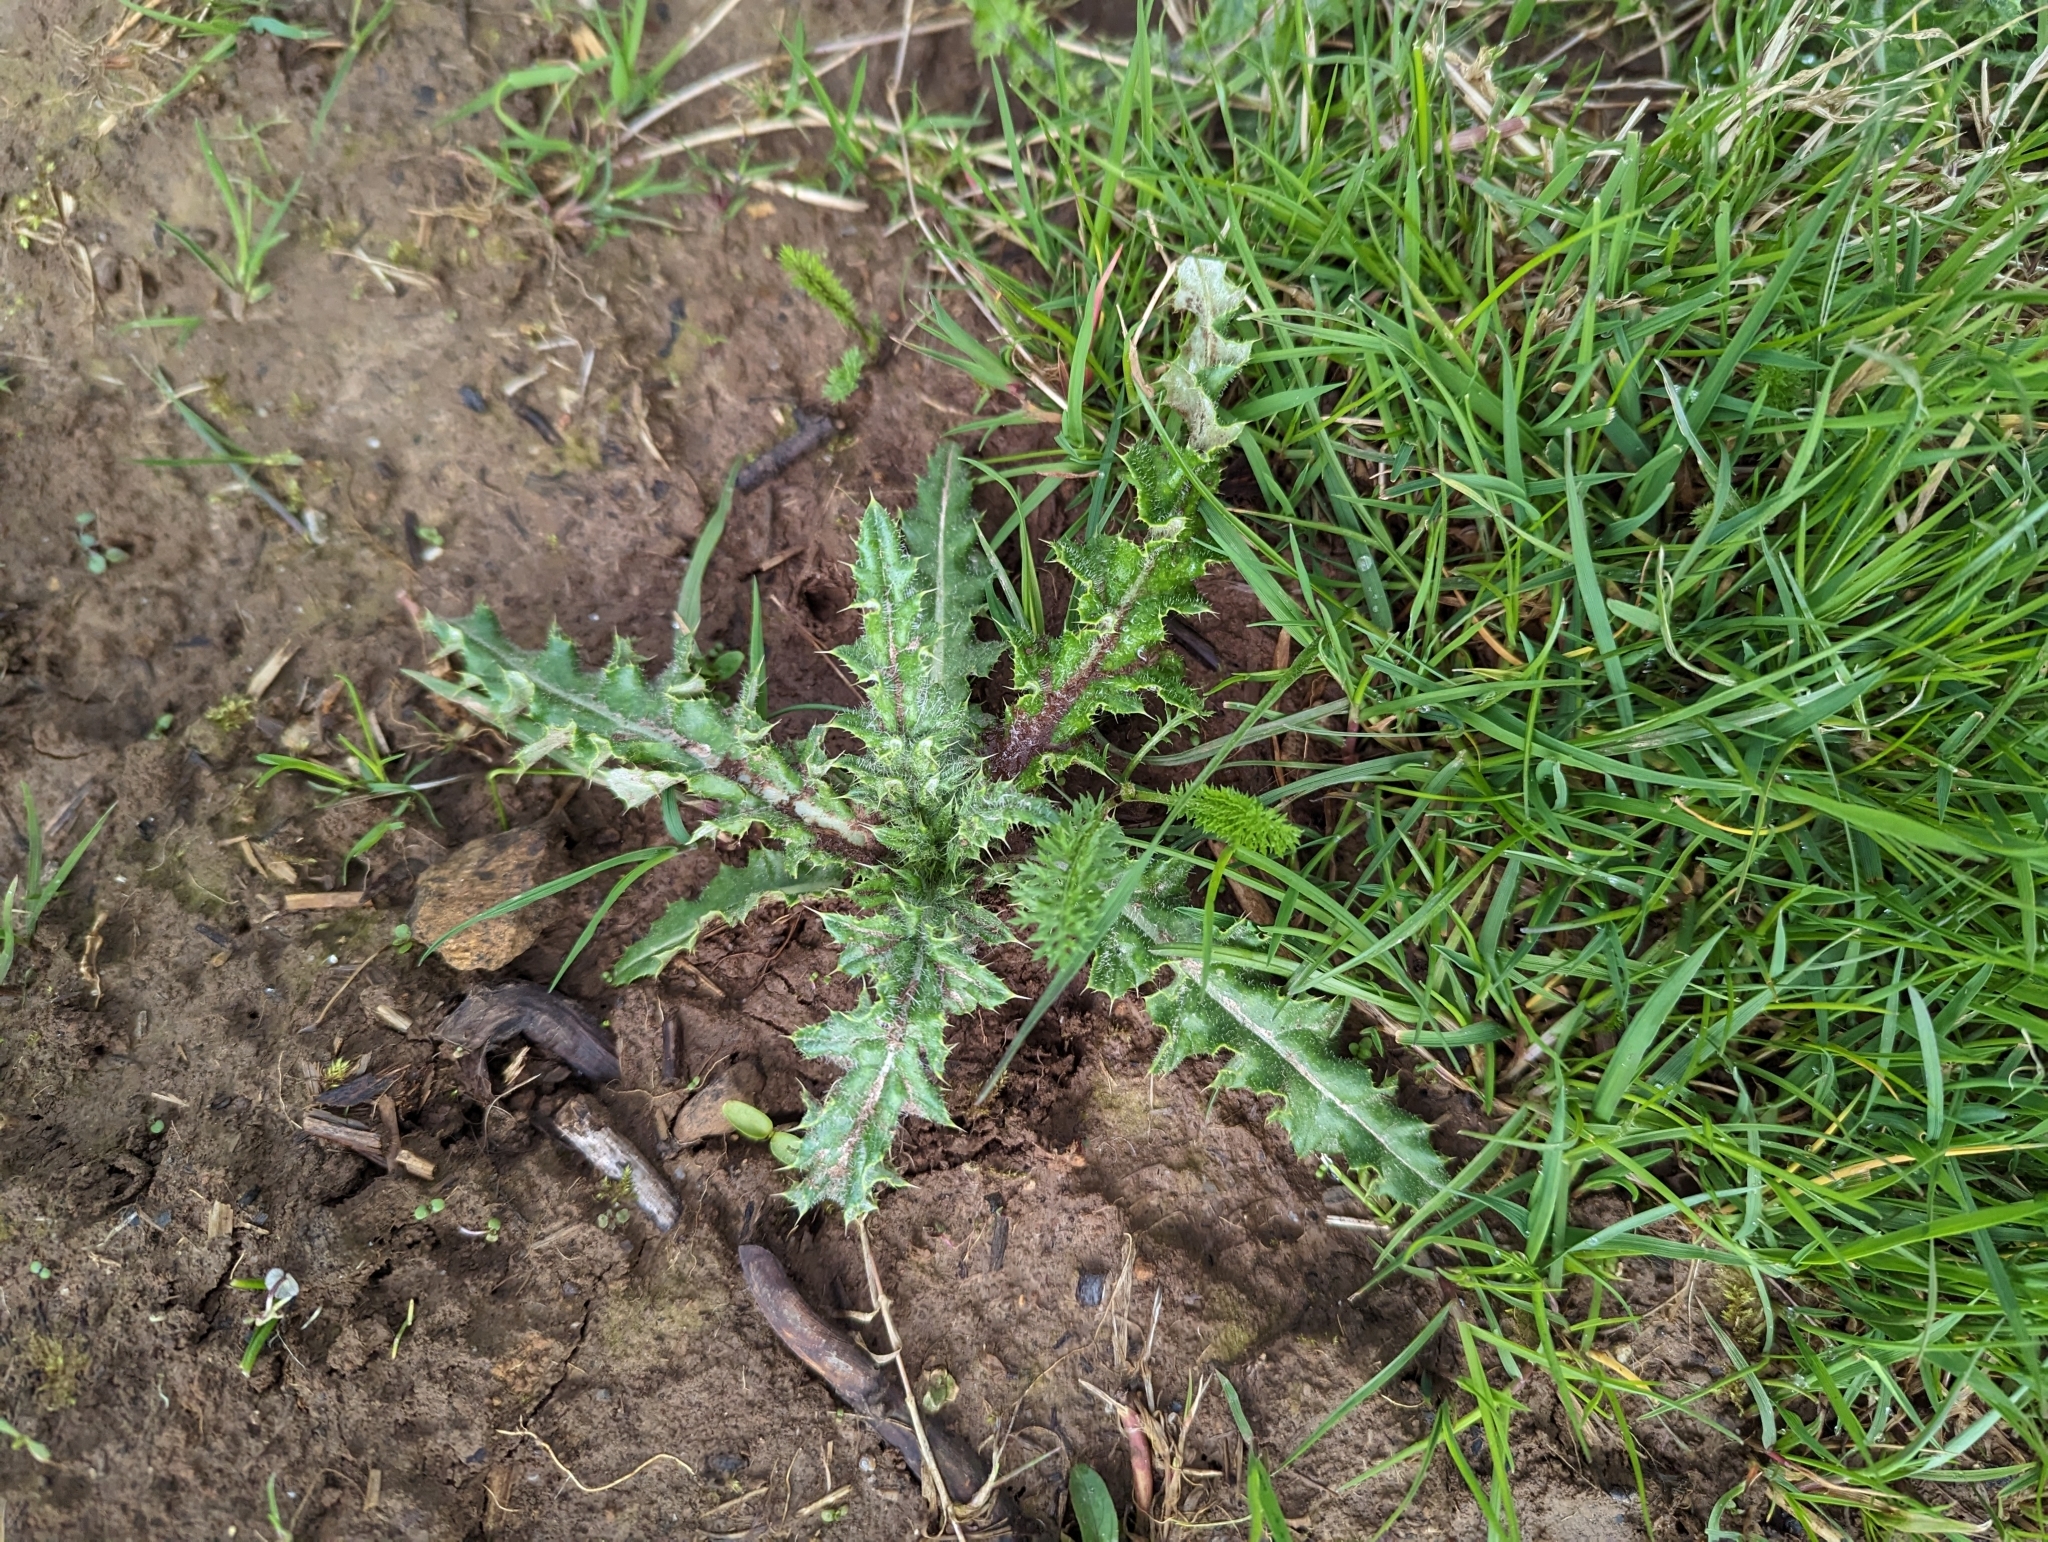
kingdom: Plantae
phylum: Tracheophyta
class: Magnoliopsida
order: Asterales
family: Asteraceae
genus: Cirsium
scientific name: Cirsium arvense
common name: Creeping thistle
